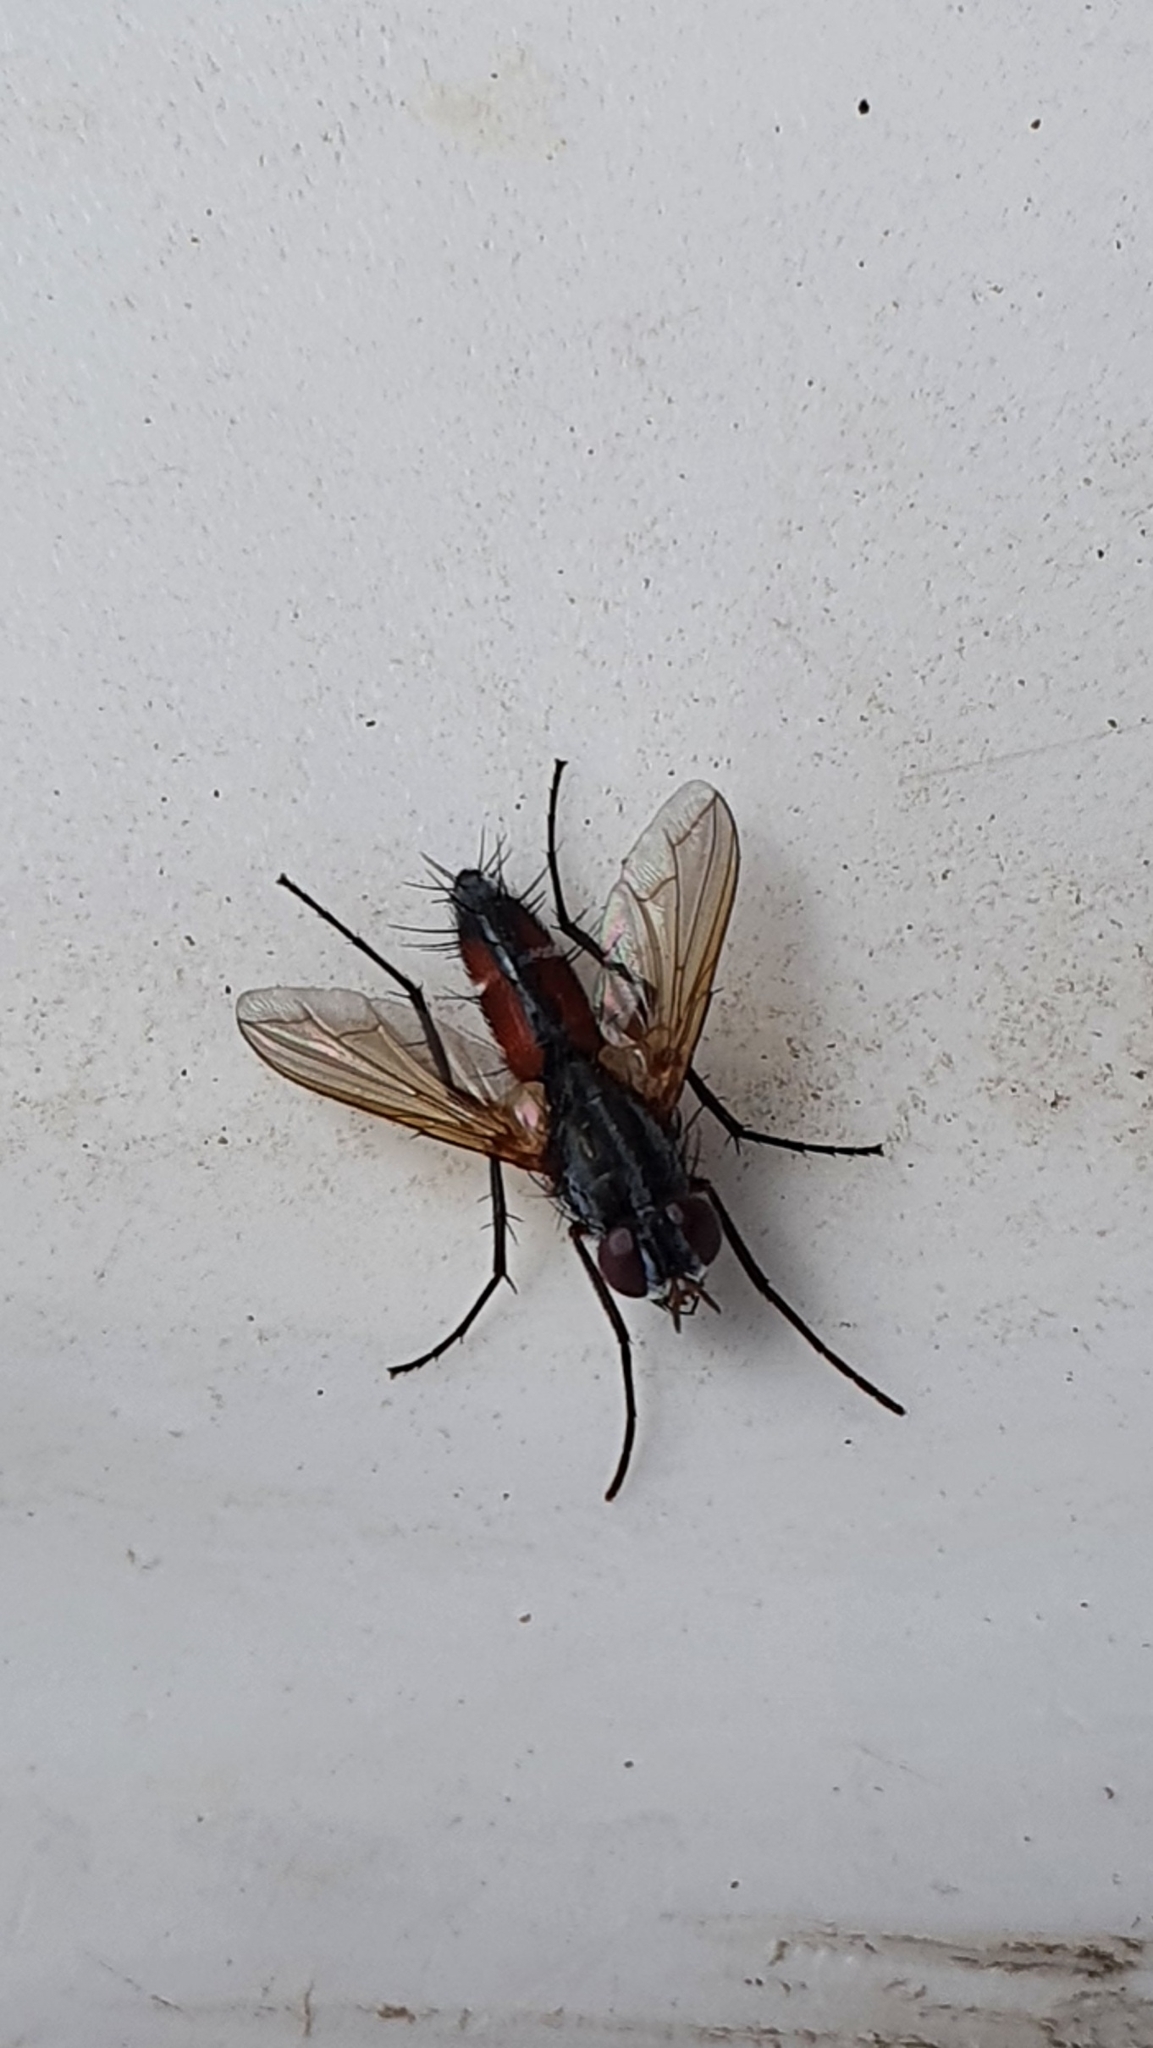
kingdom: Animalia
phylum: Arthropoda
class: Insecta
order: Diptera
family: Tachinidae
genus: Mintho
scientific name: Mintho rufiventris
